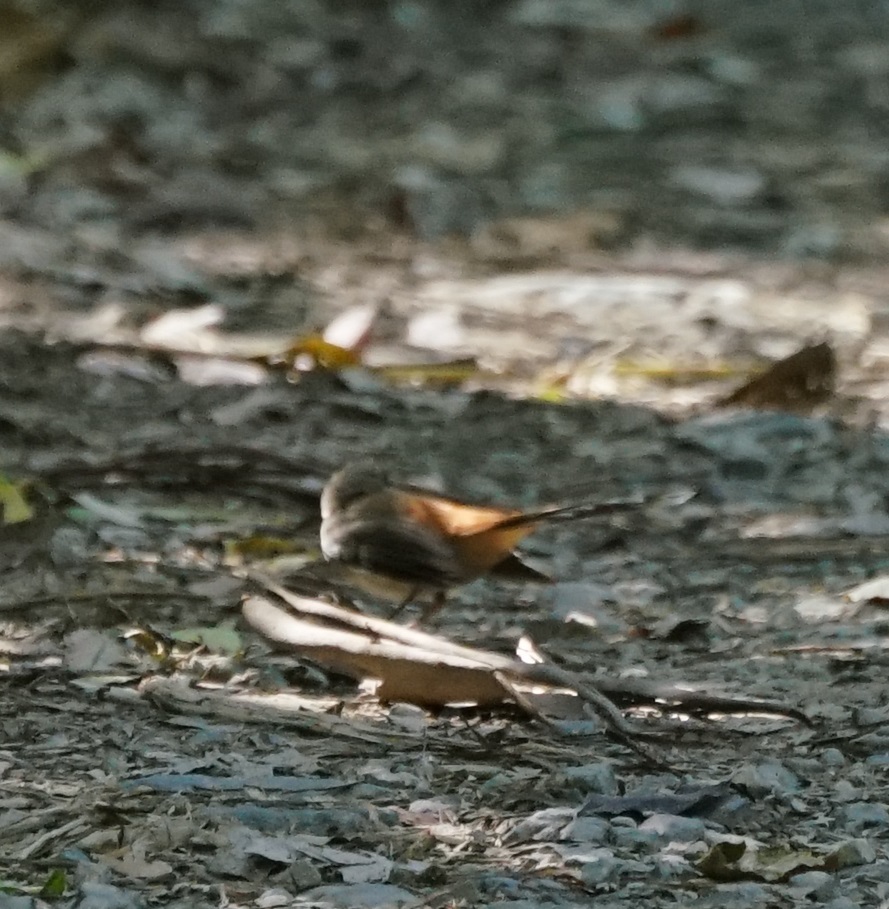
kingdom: Animalia
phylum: Chordata
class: Aves
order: Passeriformes
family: Rhipiduridae
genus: Rhipidura
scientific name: Rhipidura rufifrons
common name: Rufous fantail
